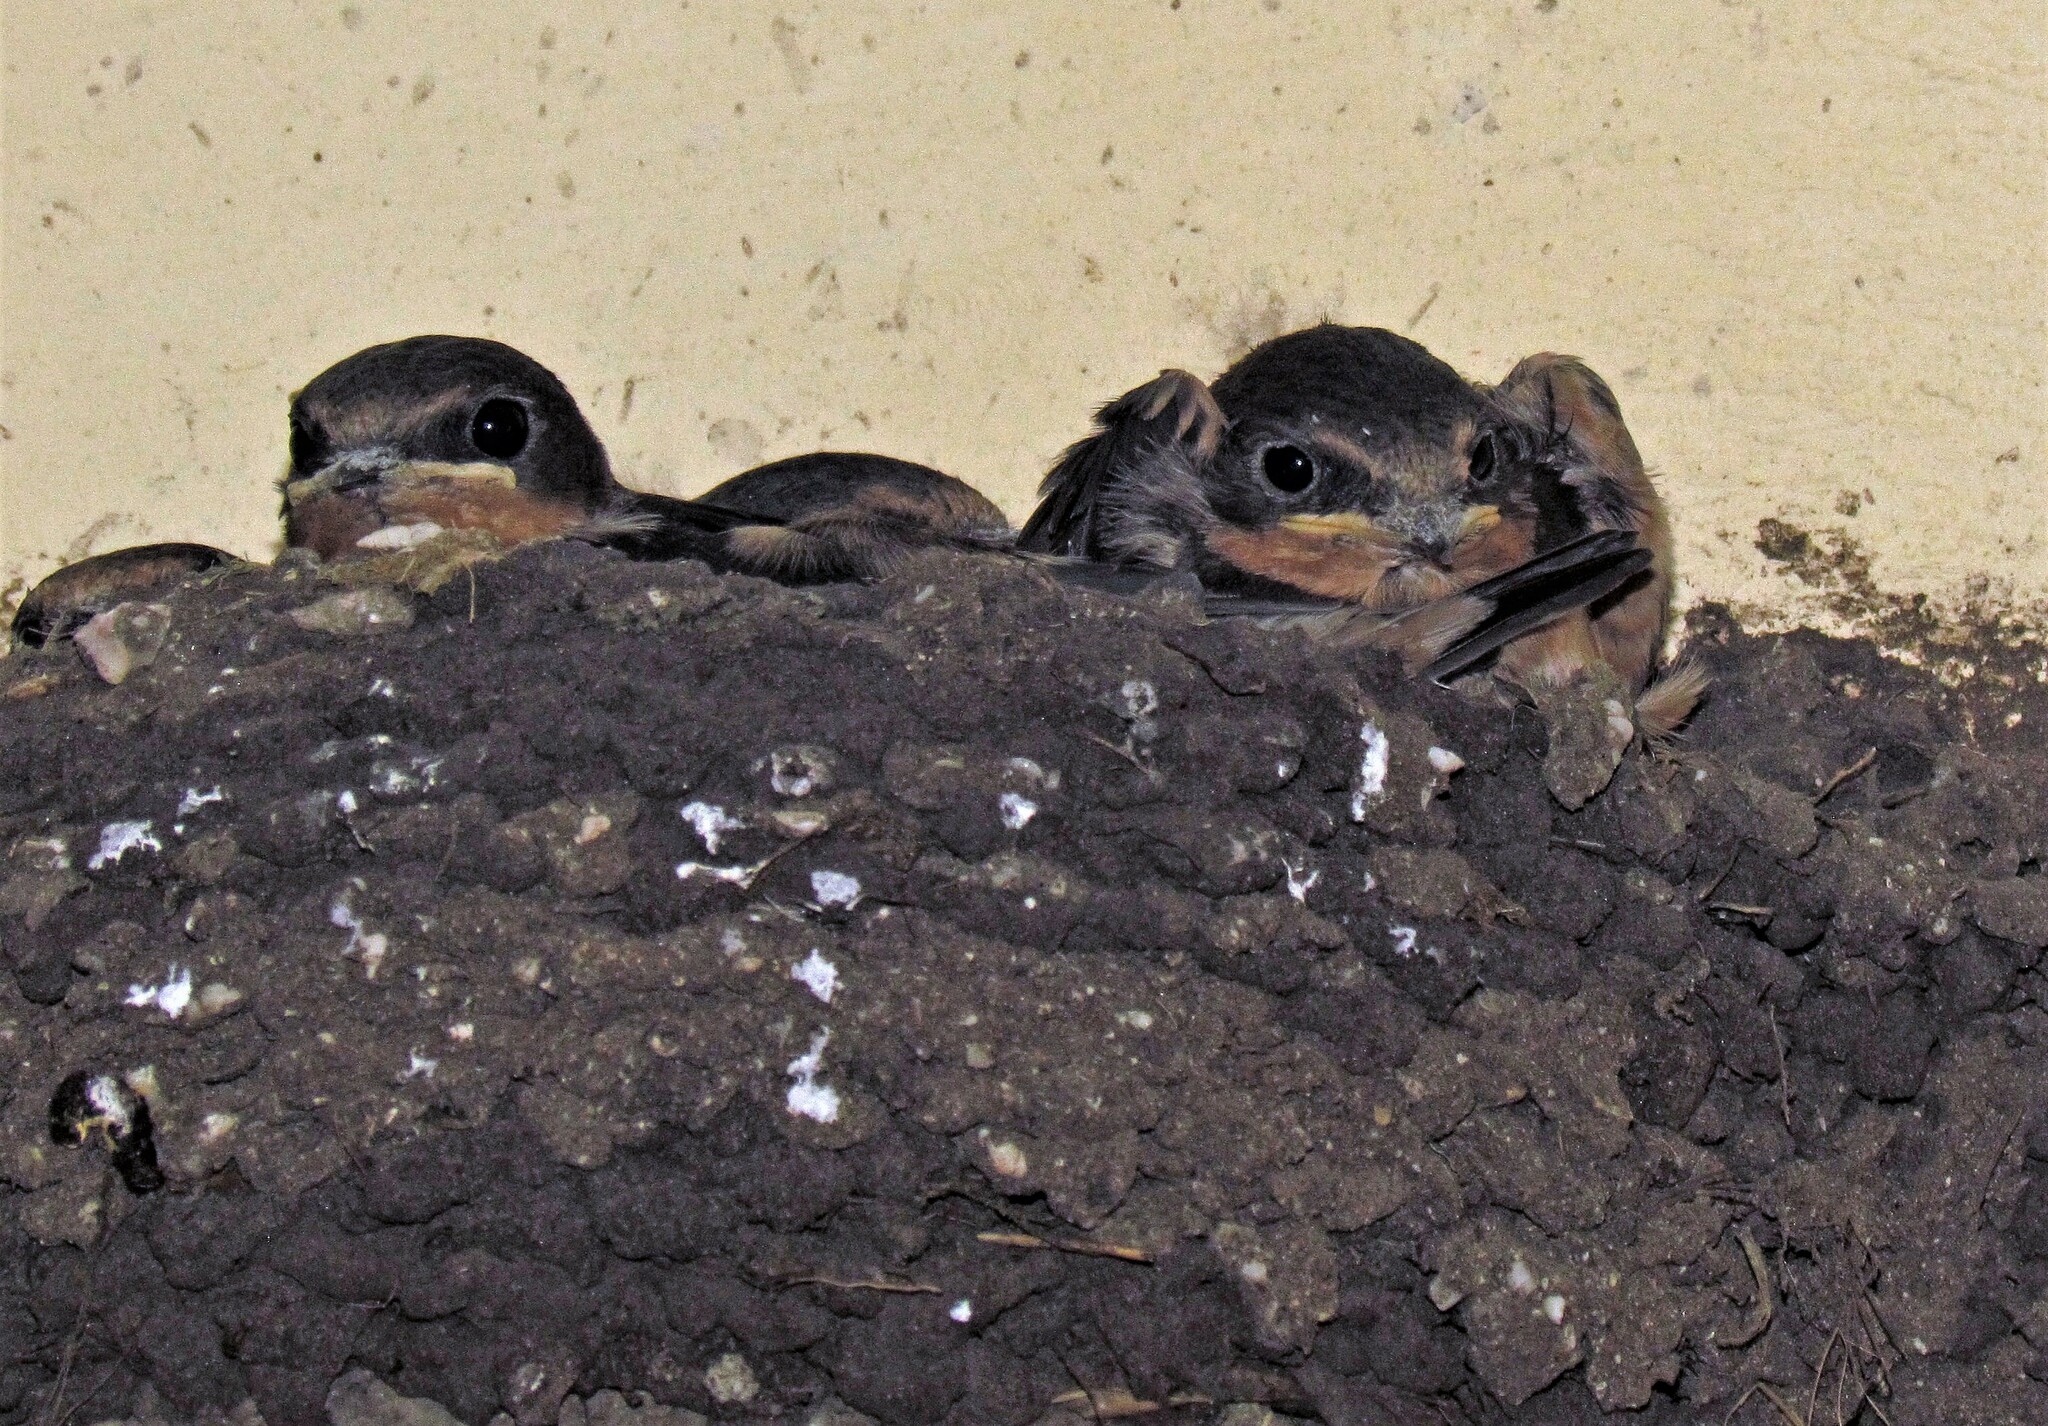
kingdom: Animalia
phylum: Chordata
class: Aves
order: Passeriformes
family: Hirundinidae
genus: Hirundo
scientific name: Hirundo rustica
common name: Barn swallow
